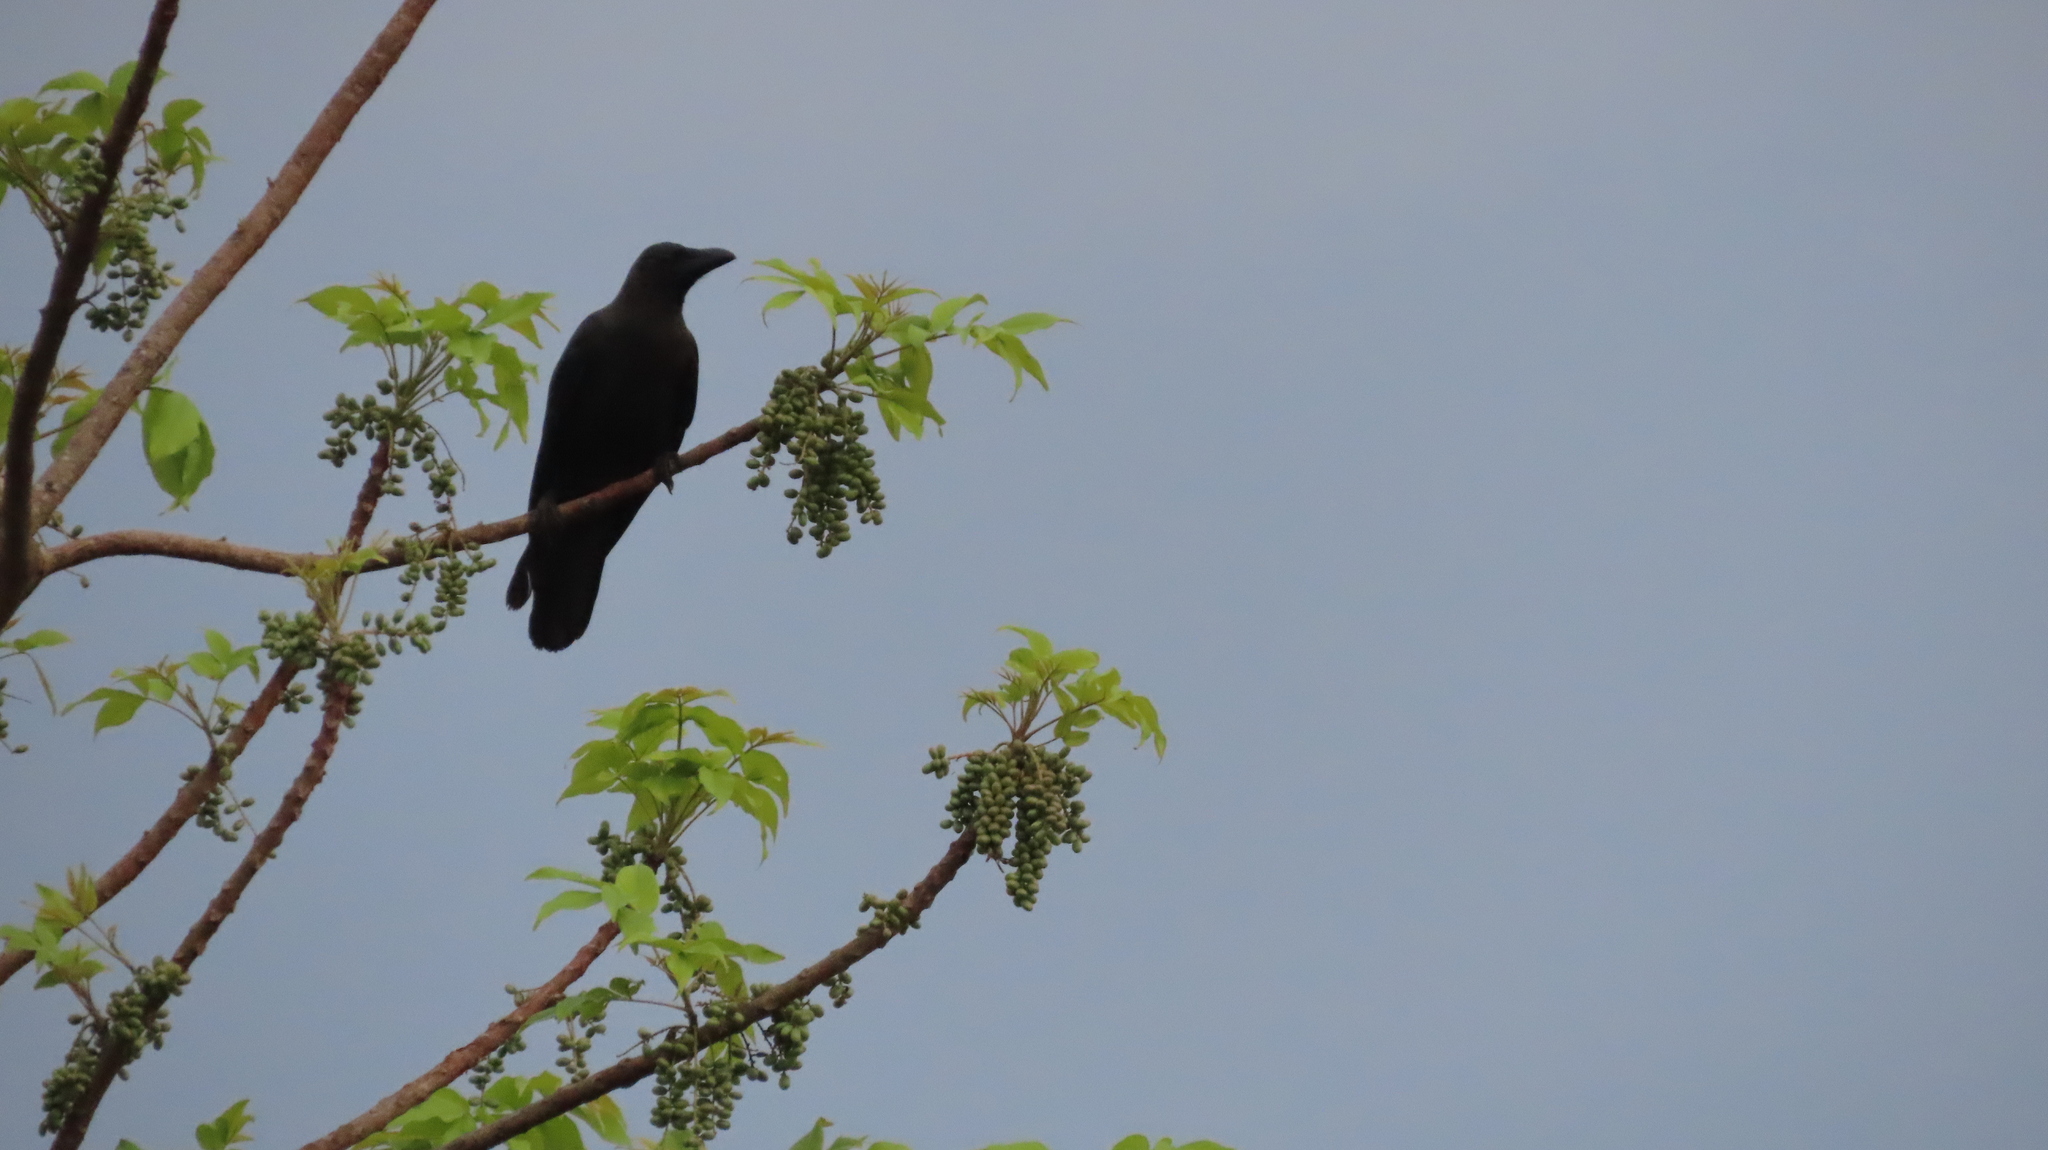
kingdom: Animalia
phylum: Chordata
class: Aves
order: Passeriformes
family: Corvidae
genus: Corvus
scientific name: Corvus splendens
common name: House crow
